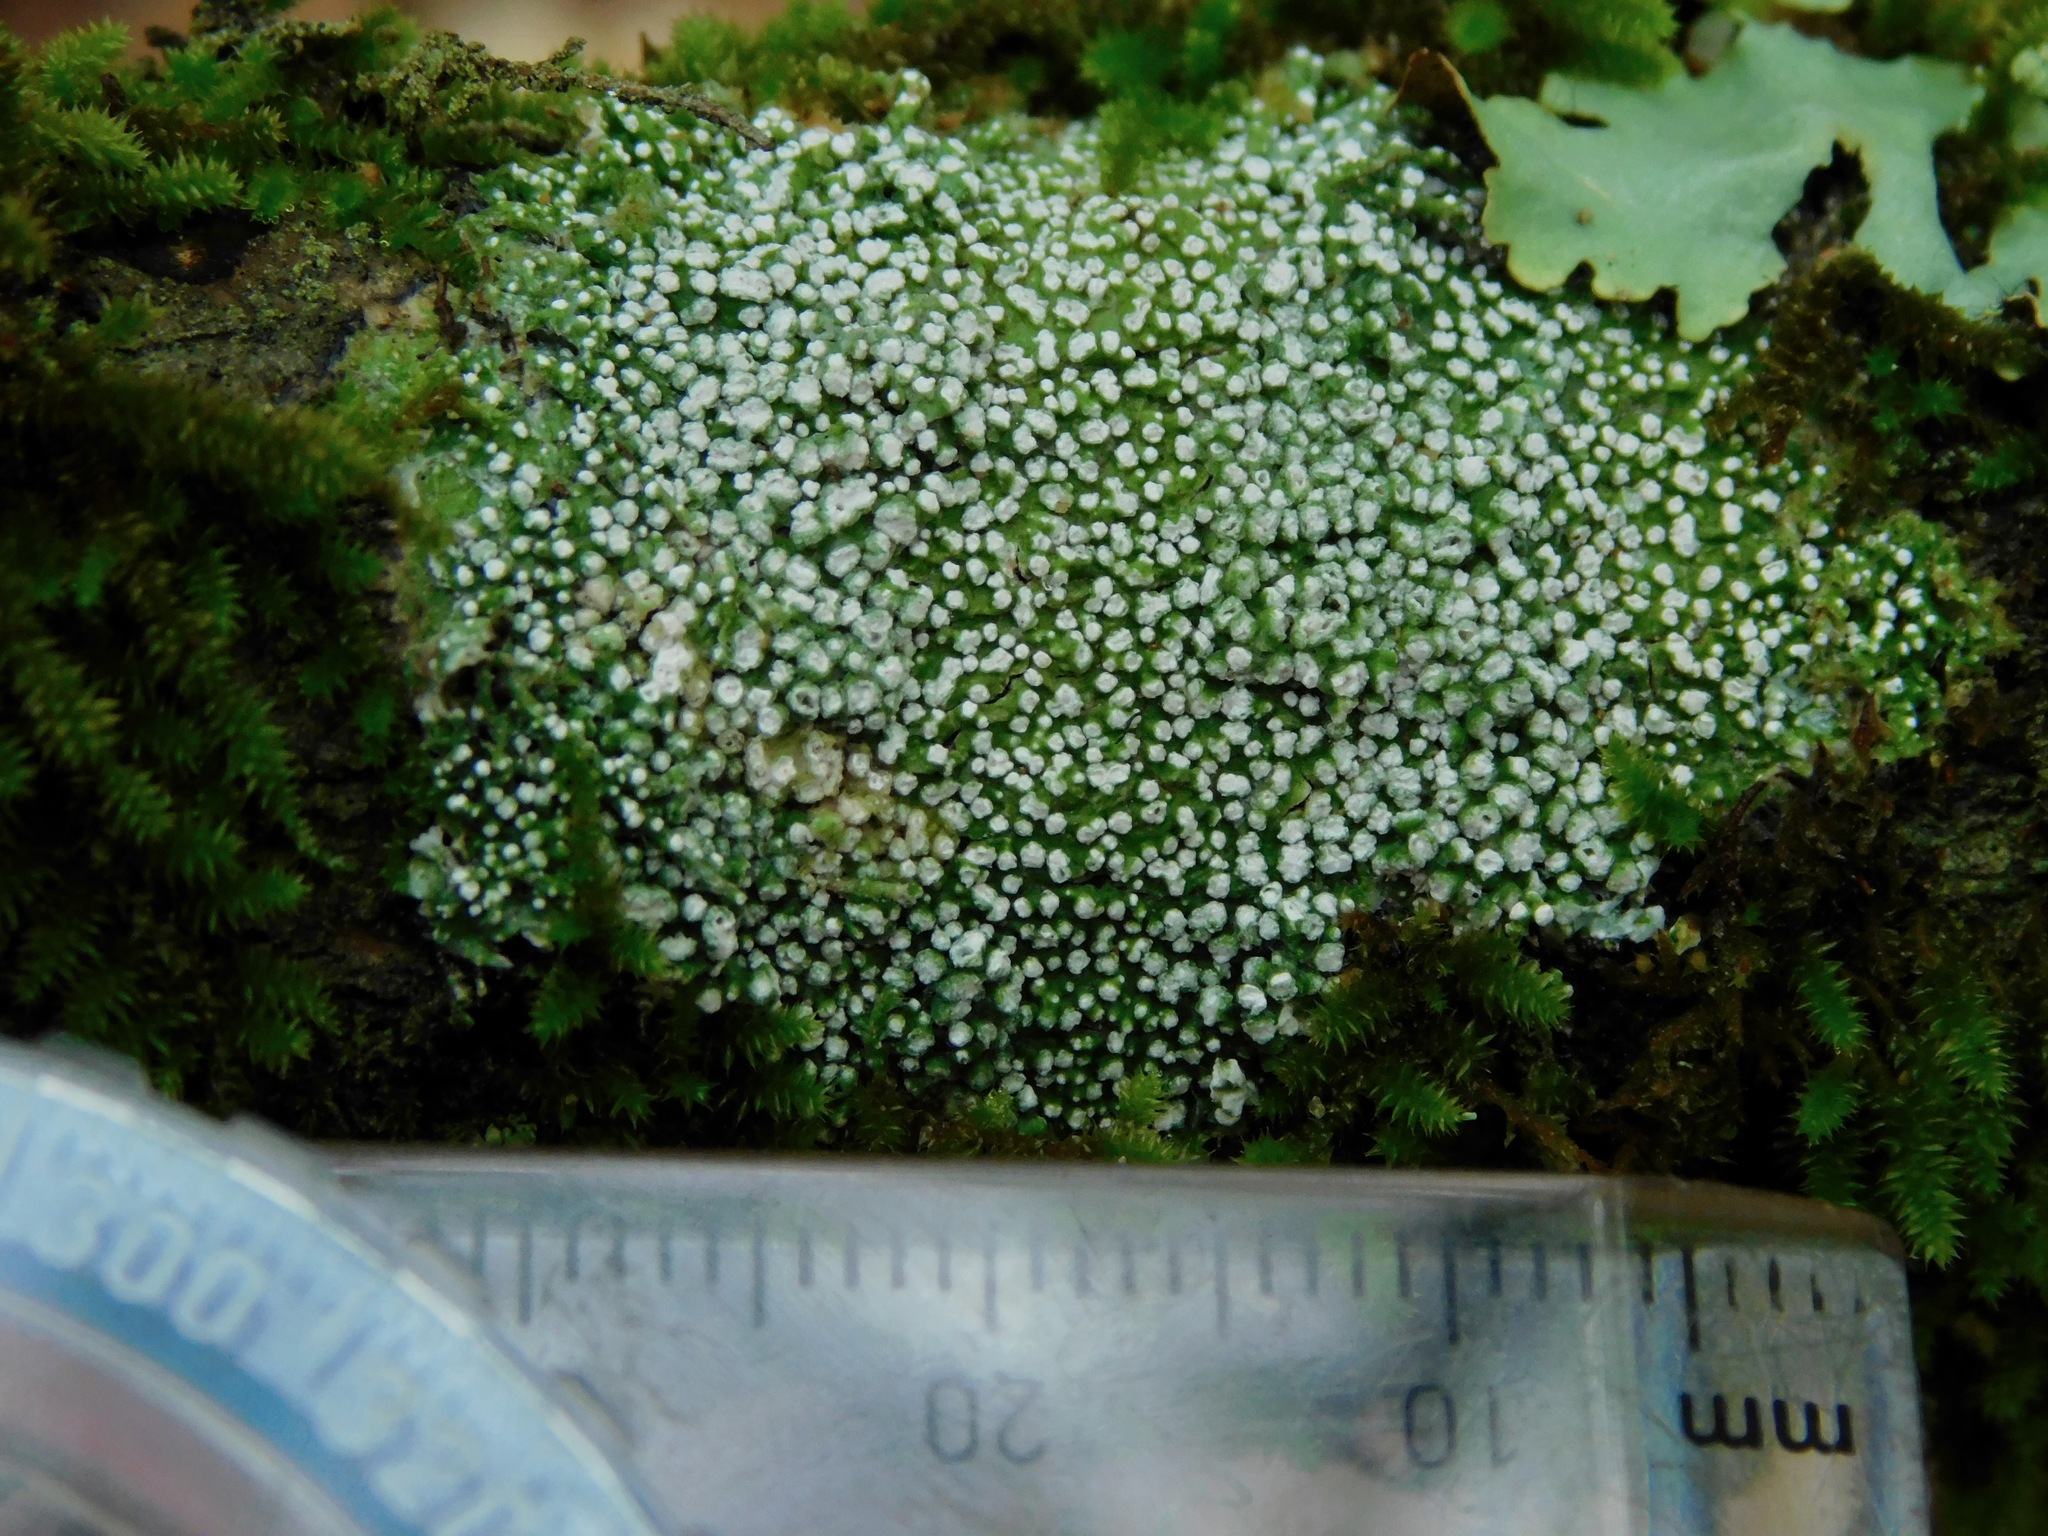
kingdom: Fungi
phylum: Ascomycota
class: Lecanoromycetes
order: Pertusariales
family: Pertusariaceae
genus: Lepra
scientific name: Lepra amara
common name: Bitter wart lichen
